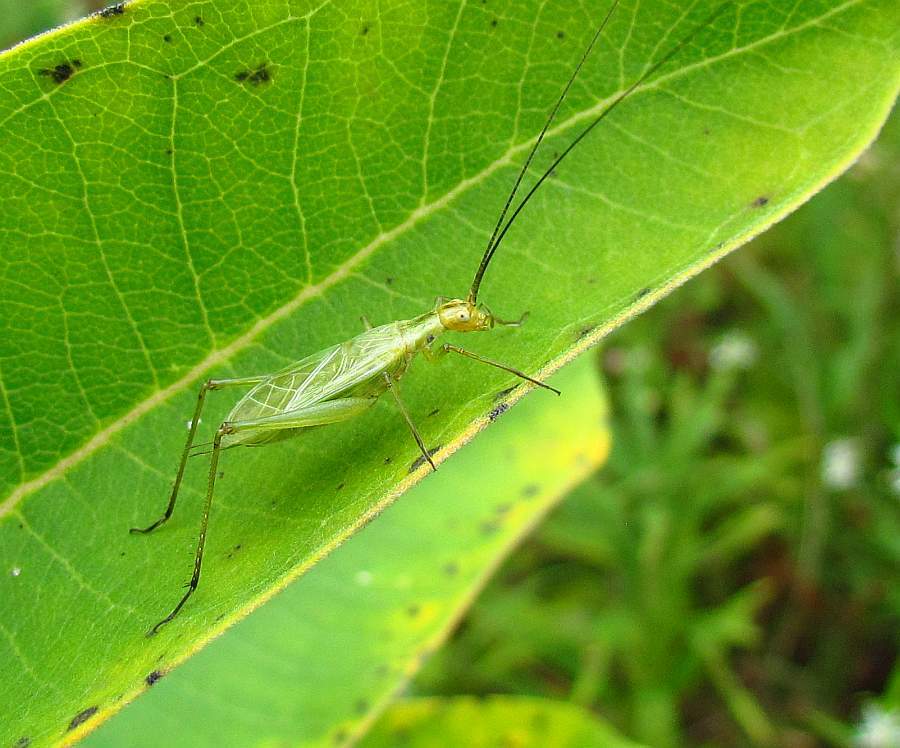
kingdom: Animalia
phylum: Arthropoda
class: Insecta
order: Orthoptera
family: Gryllidae
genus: Oecanthus
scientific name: Oecanthus nigricornis
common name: Black-horned tree cricket
